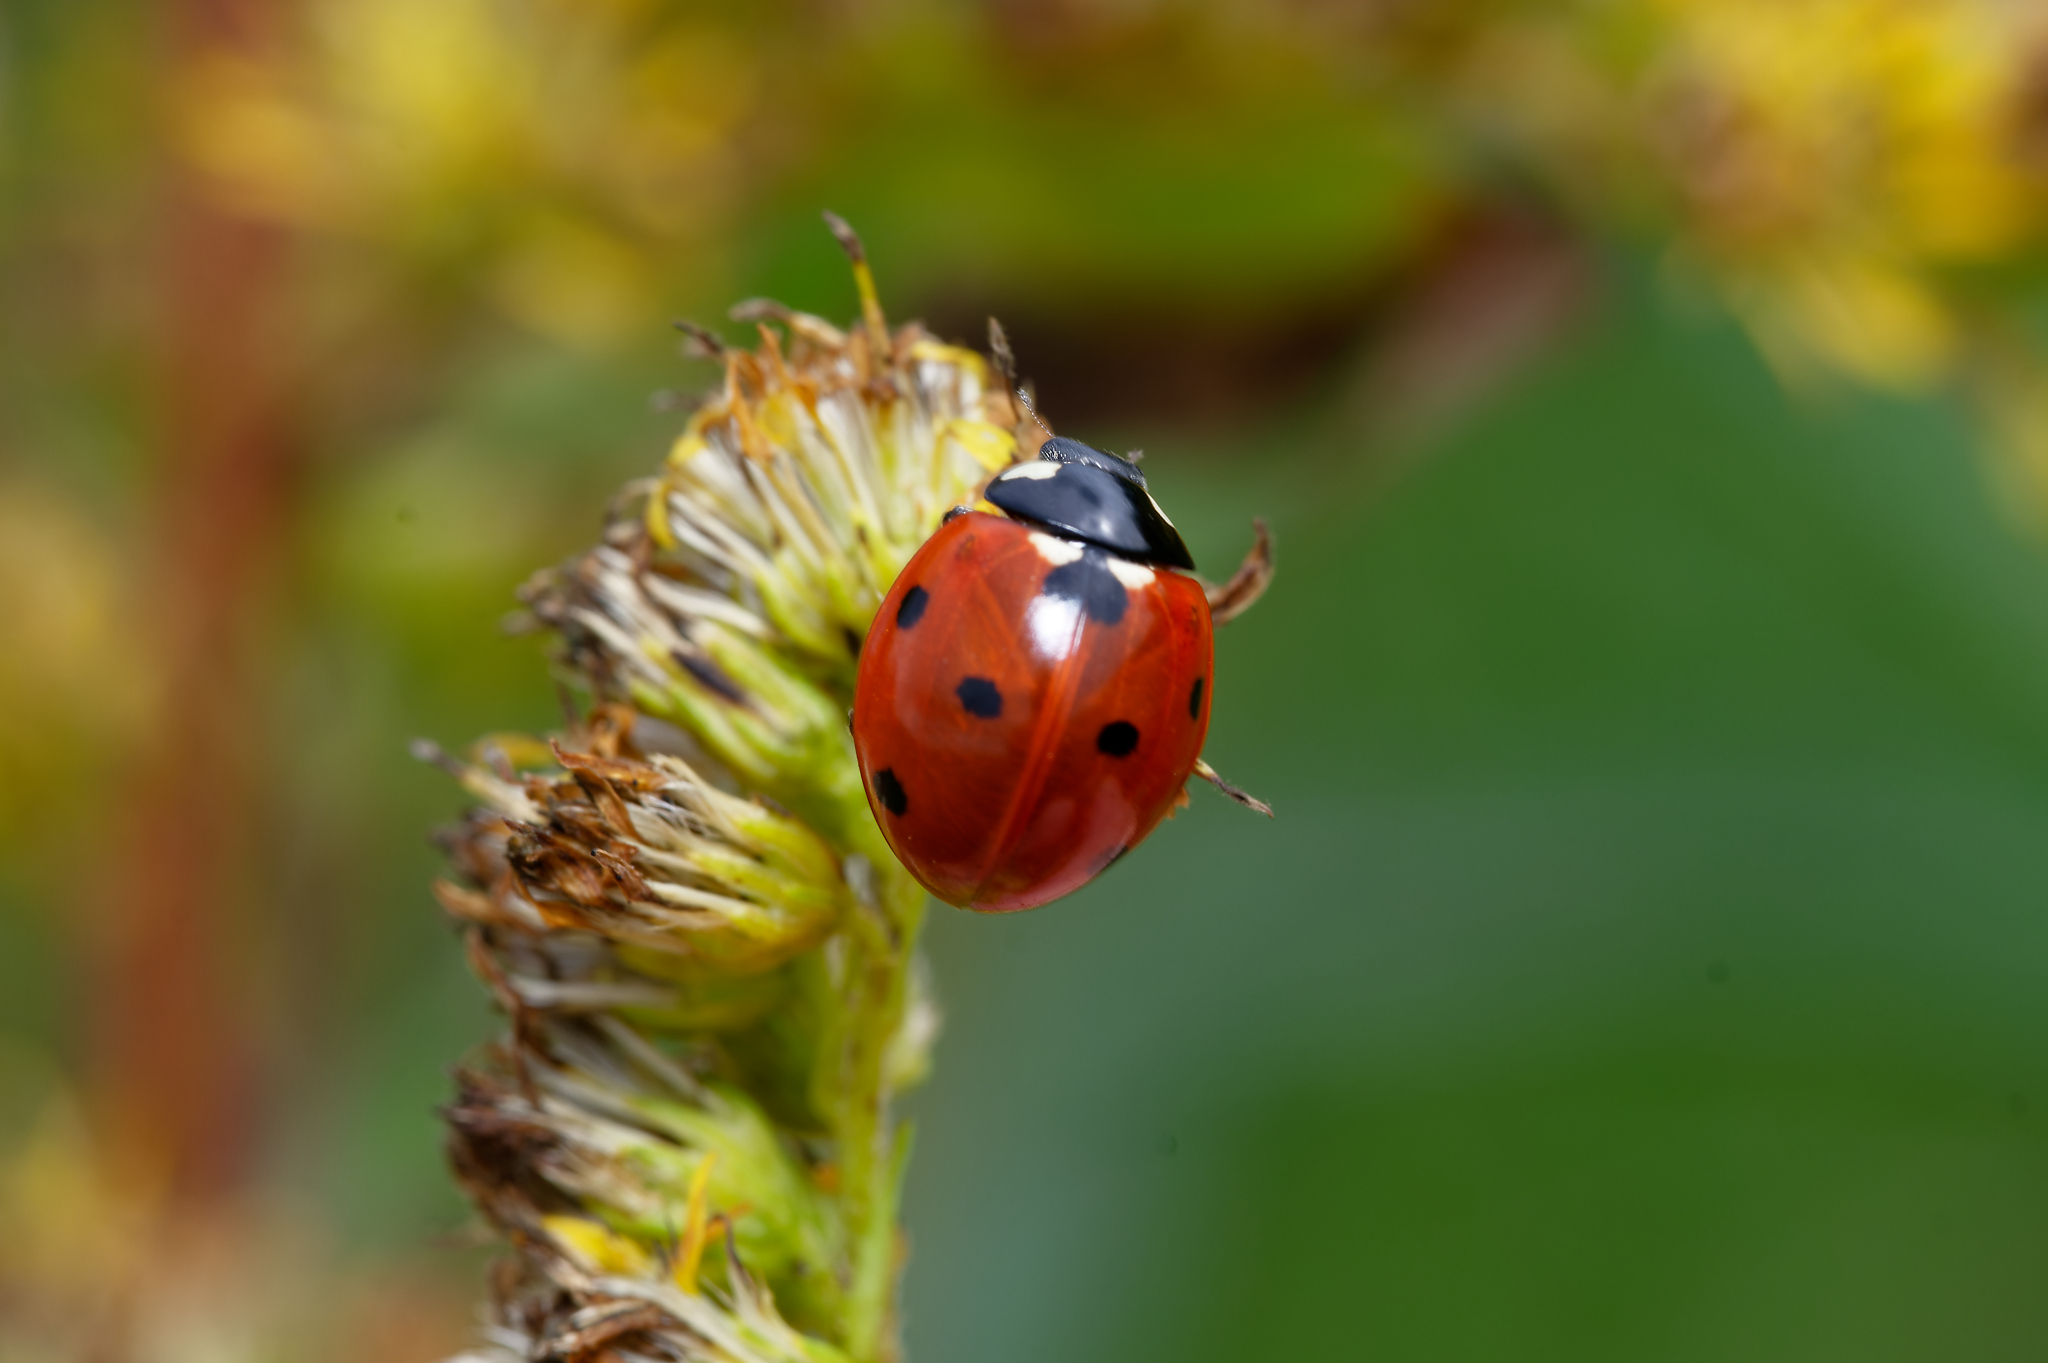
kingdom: Animalia
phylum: Arthropoda
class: Insecta
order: Coleoptera
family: Coccinellidae
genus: Coccinella
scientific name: Coccinella septempunctata
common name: Sevenspotted lady beetle
